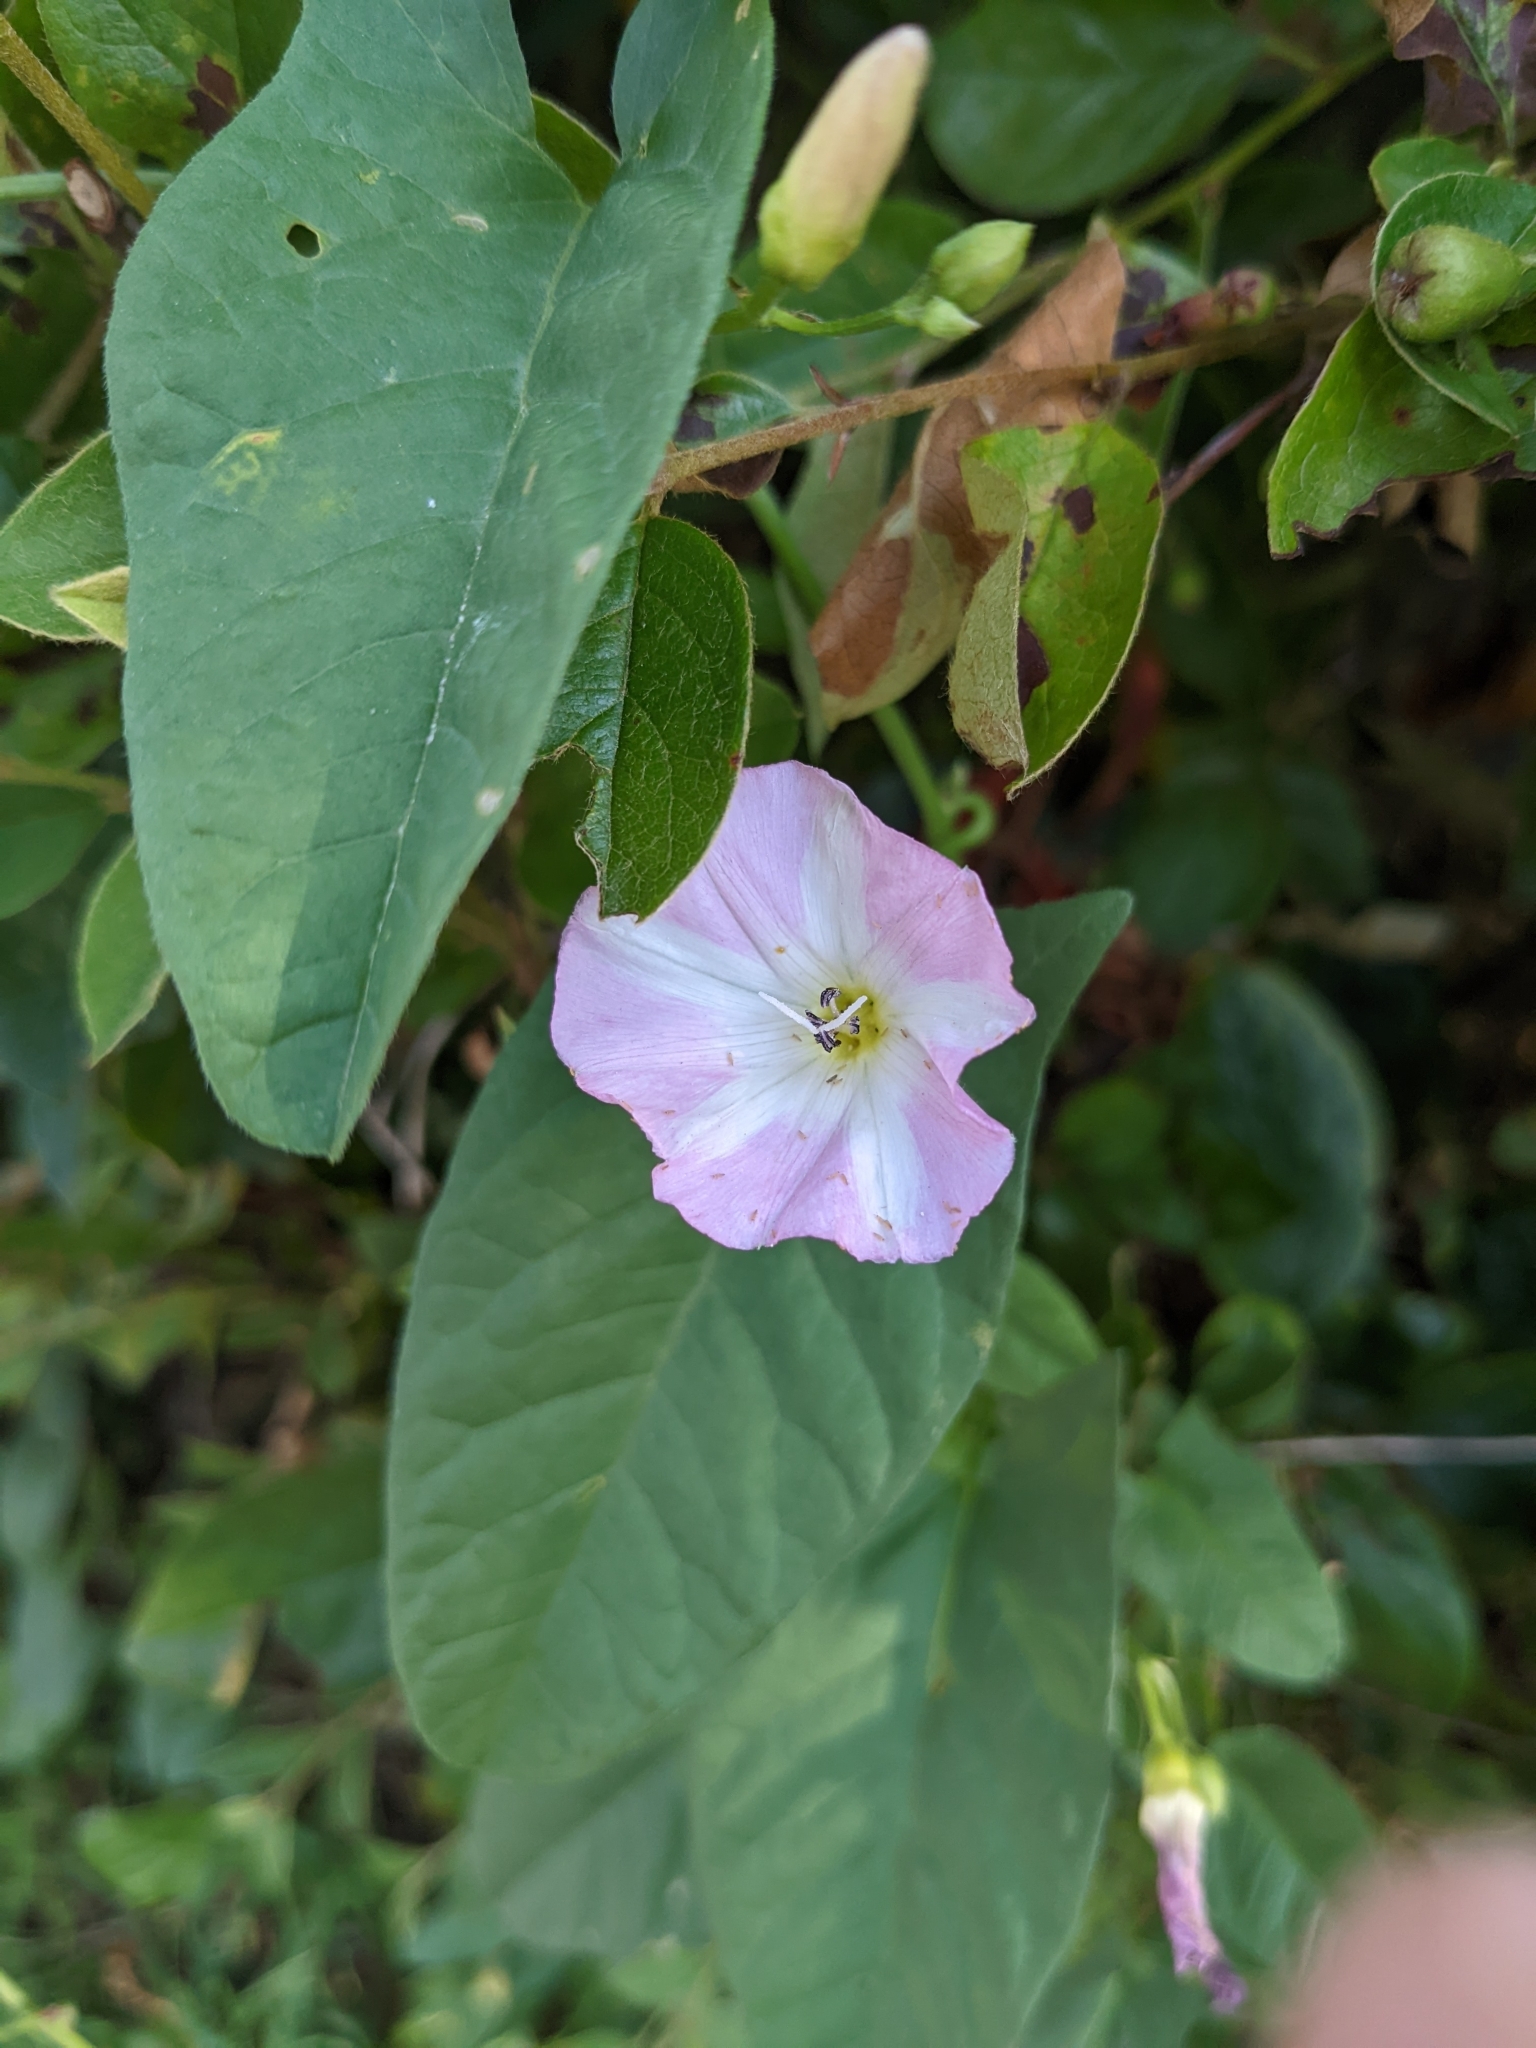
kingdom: Plantae
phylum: Tracheophyta
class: Magnoliopsida
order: Solanales
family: Convolvulaceae
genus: Convolvulus
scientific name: Convolvulus arvensis
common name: Field bindweed
